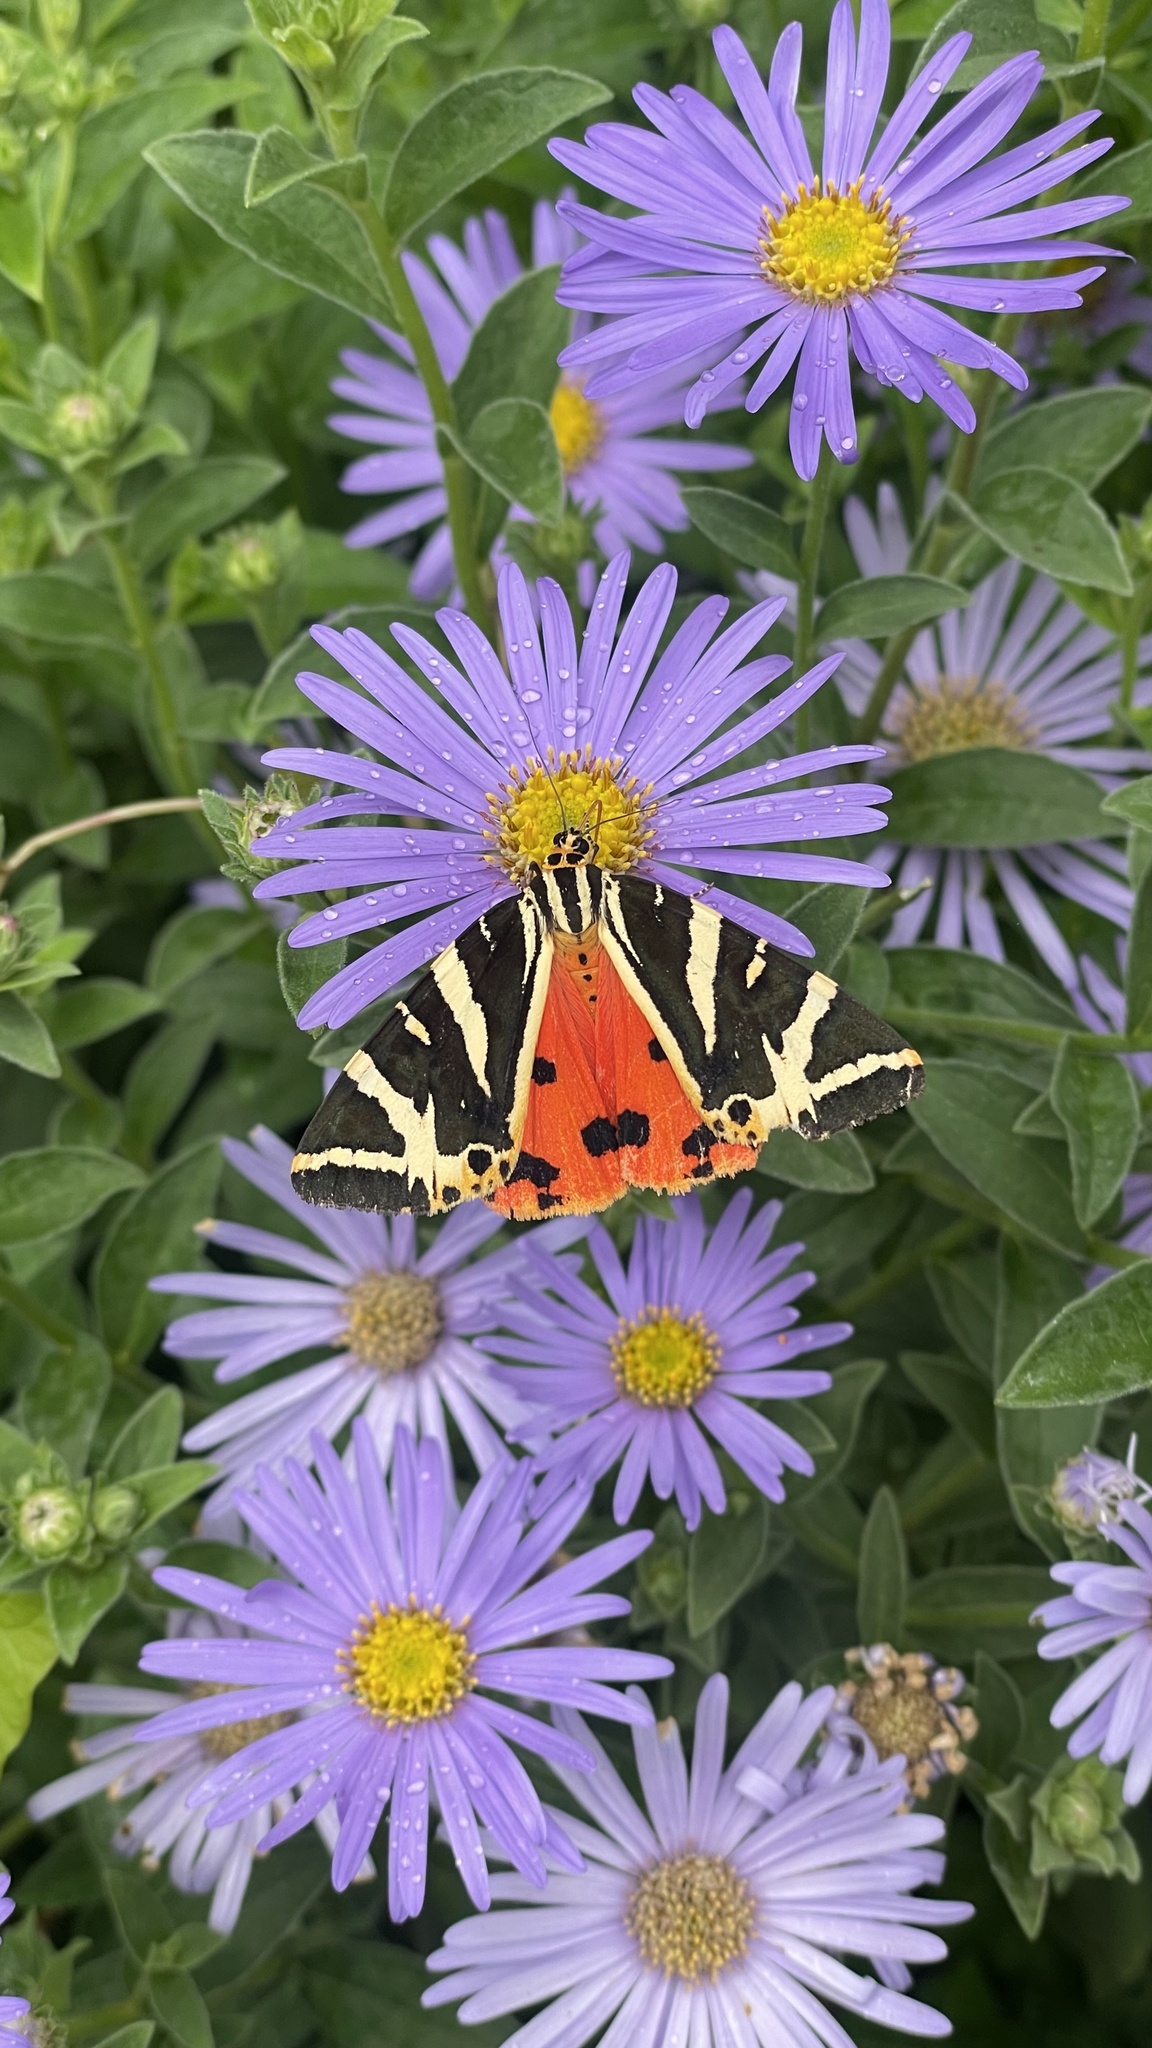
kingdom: Animalia
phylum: Arthropoda
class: Insecta
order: Lepidoptera
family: Erebidae
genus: Euplagia
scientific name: Euplagia quadripunctaria
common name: Jersey tiger
